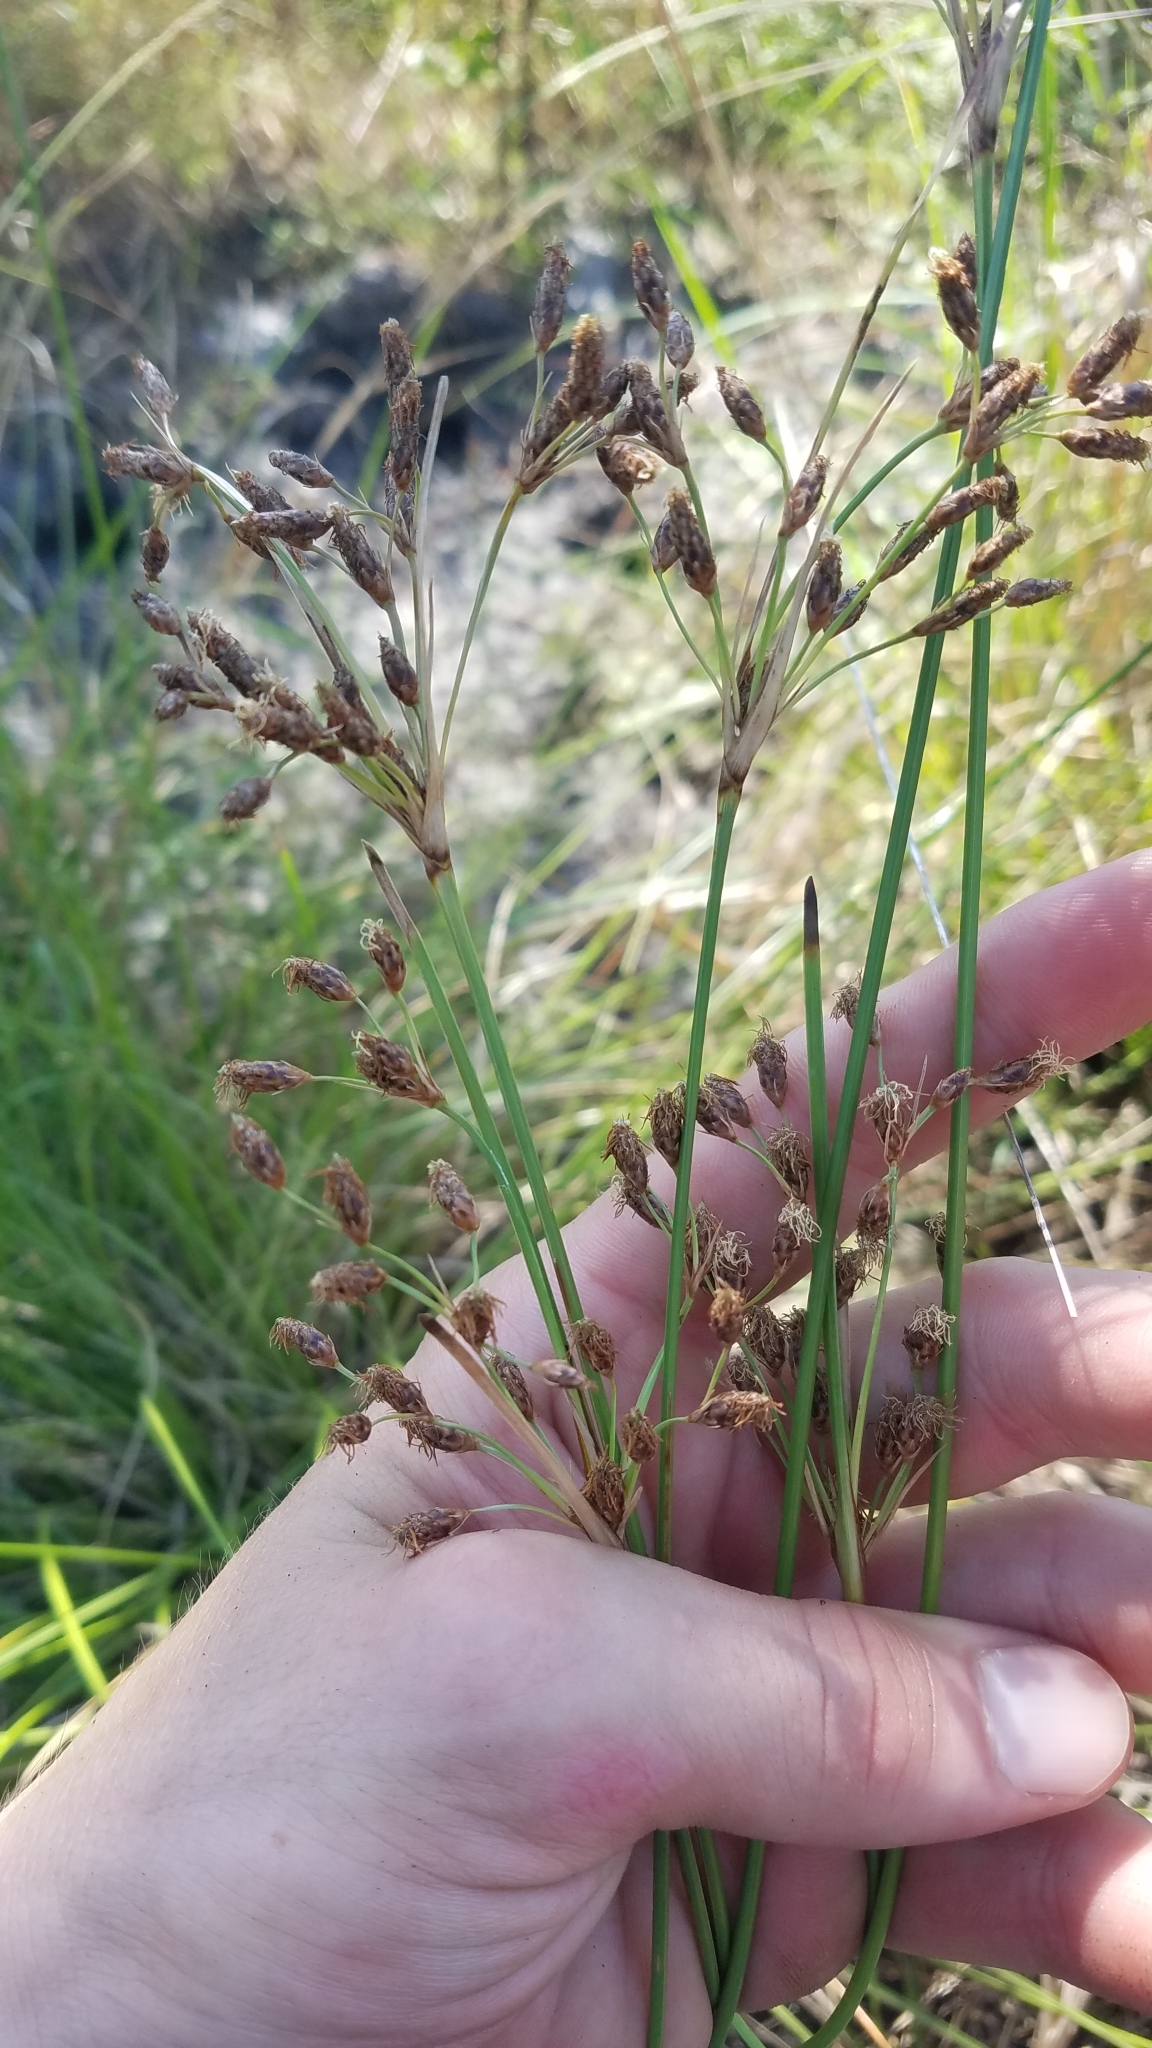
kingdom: Plantae
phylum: Tracheophyta
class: Liliopsida
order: Poales
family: Cyperaceae
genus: Fimbristylis
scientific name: Fimbristylis spadicea
